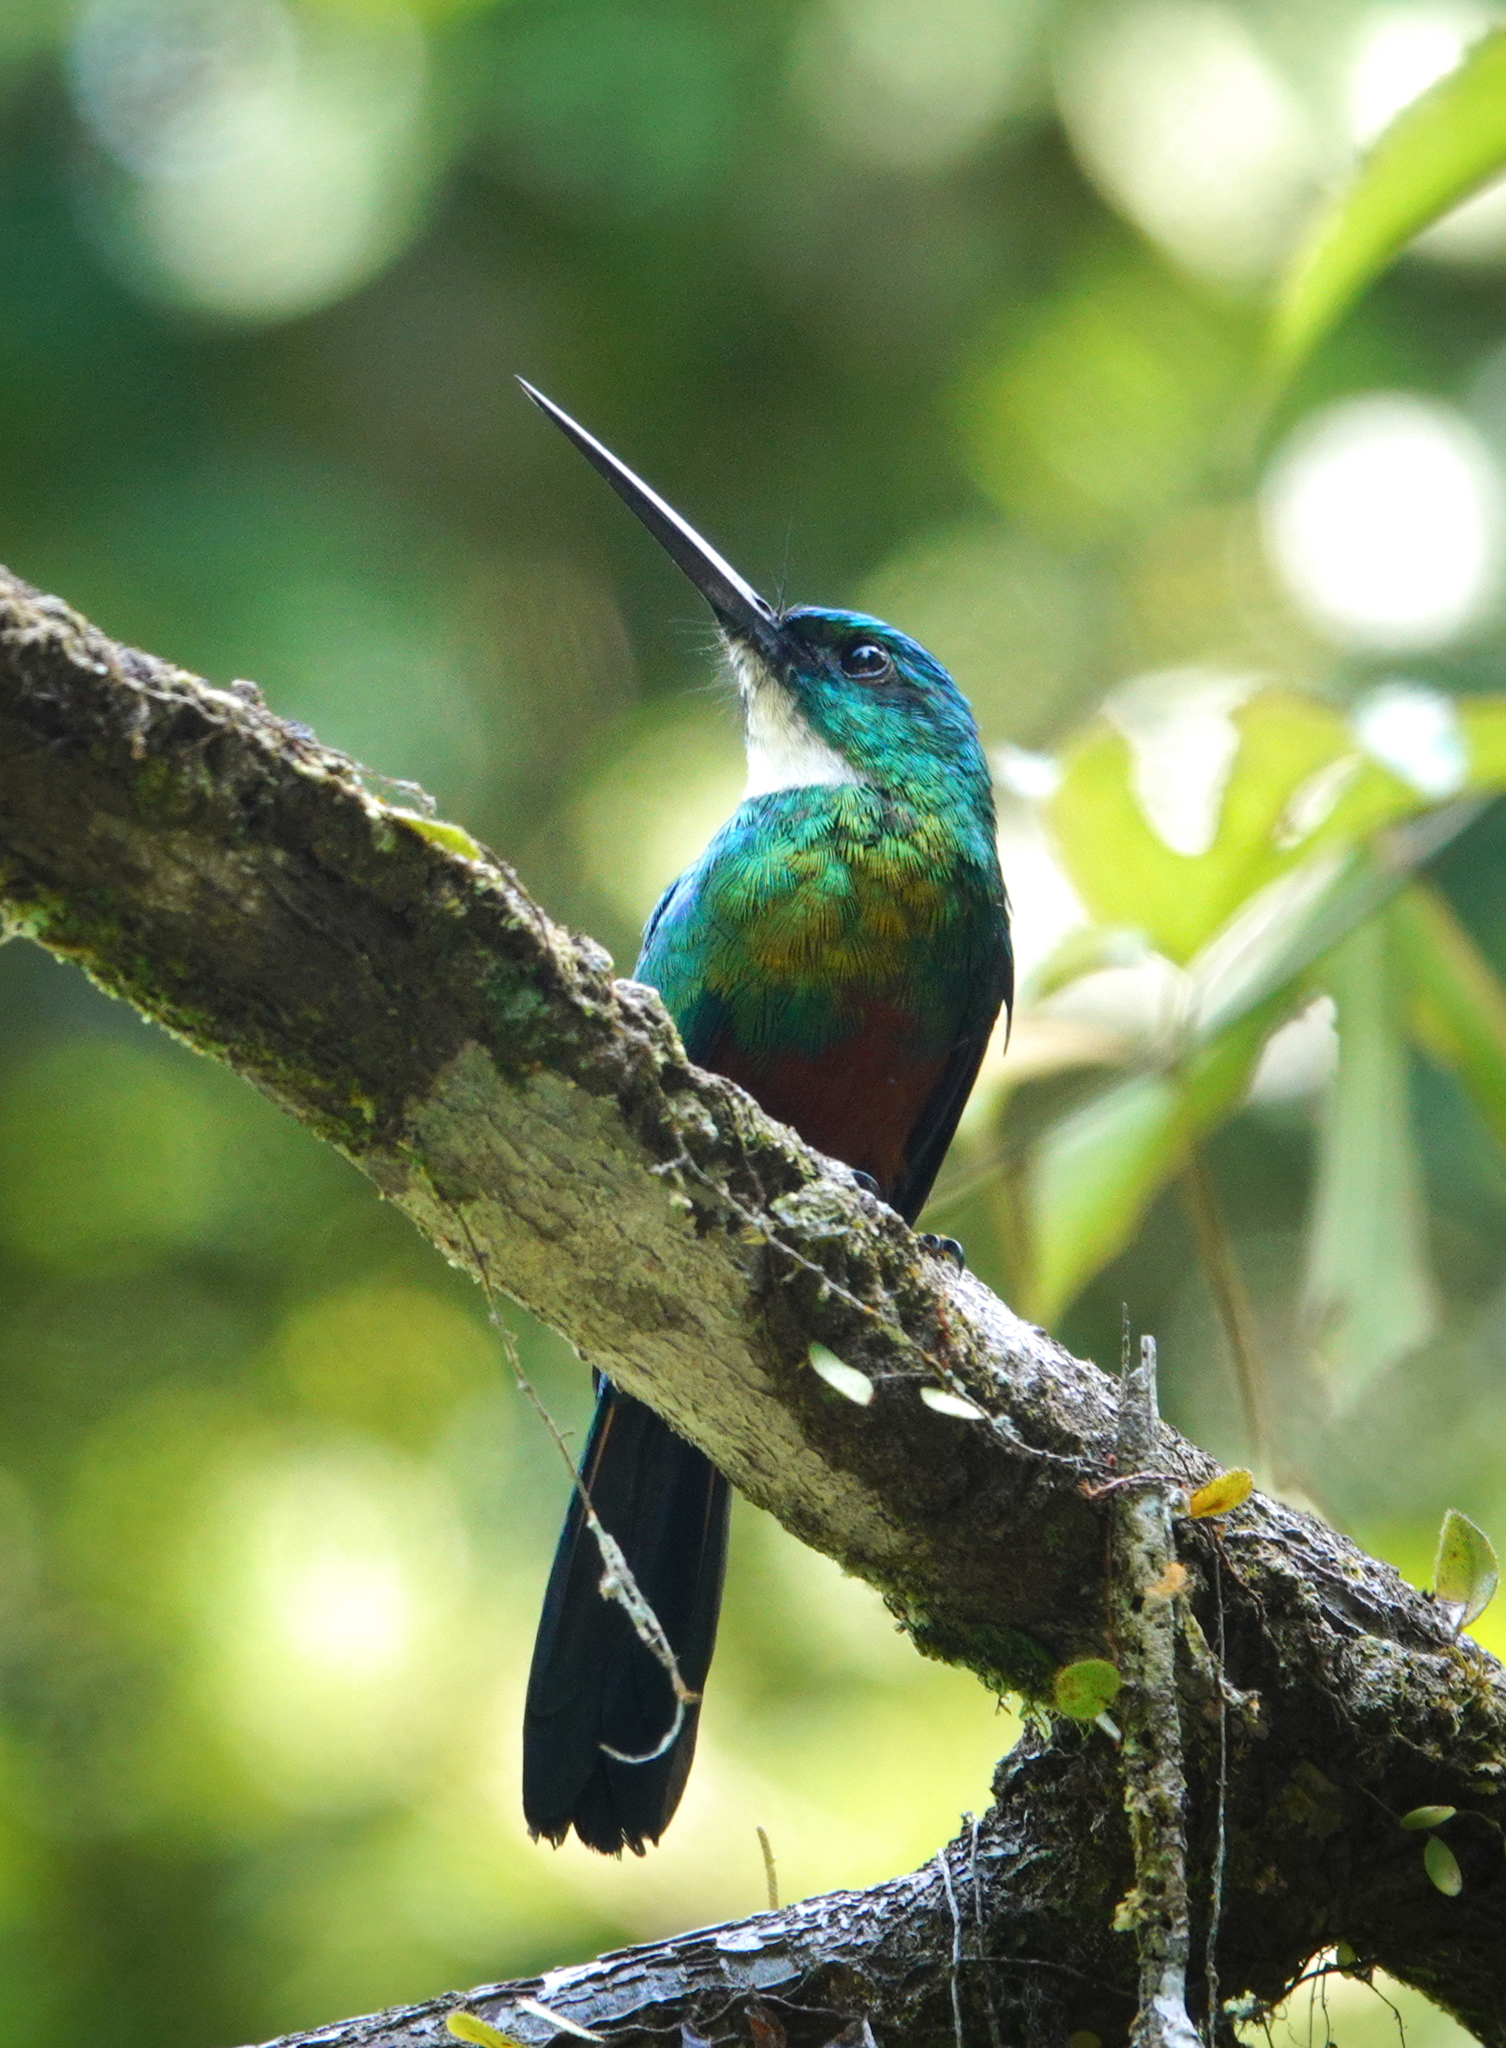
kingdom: Animalia
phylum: Chordata
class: Aves
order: Piciformes
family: Galbulidae
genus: Galbula
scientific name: Galbula galbula
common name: Green-tailed jacamar
